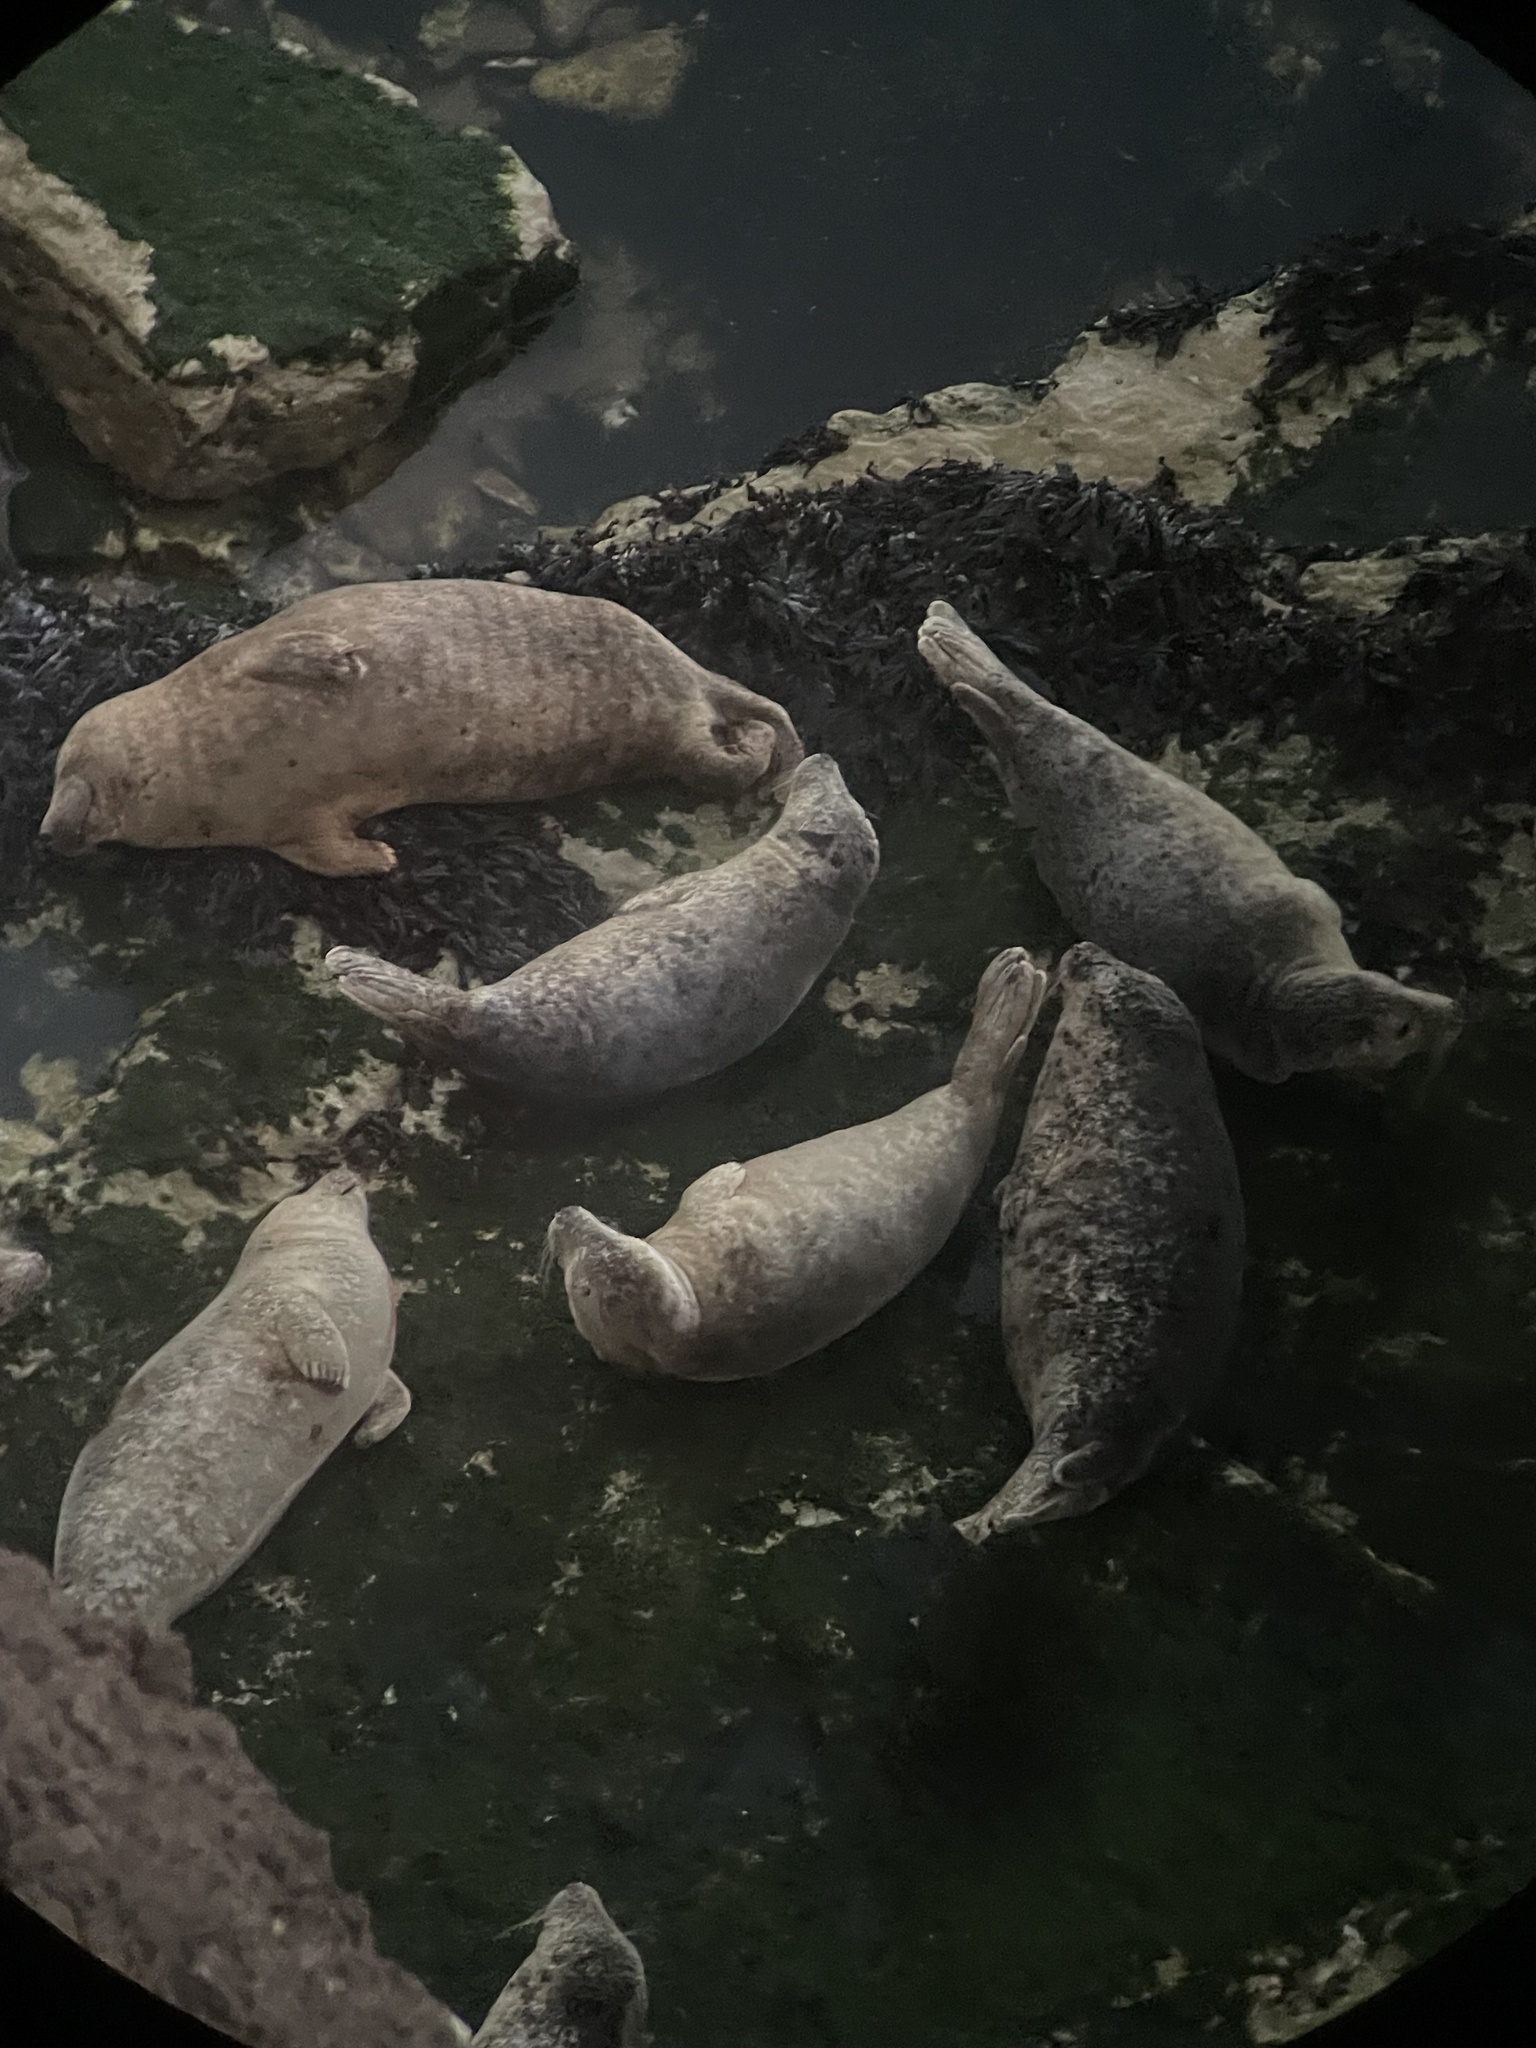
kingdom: Animalia
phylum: Chordata
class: Mammalia
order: Carnivora
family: Phocidae
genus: Halichoerus
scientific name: Halichoerus grypus
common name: Grey seal
